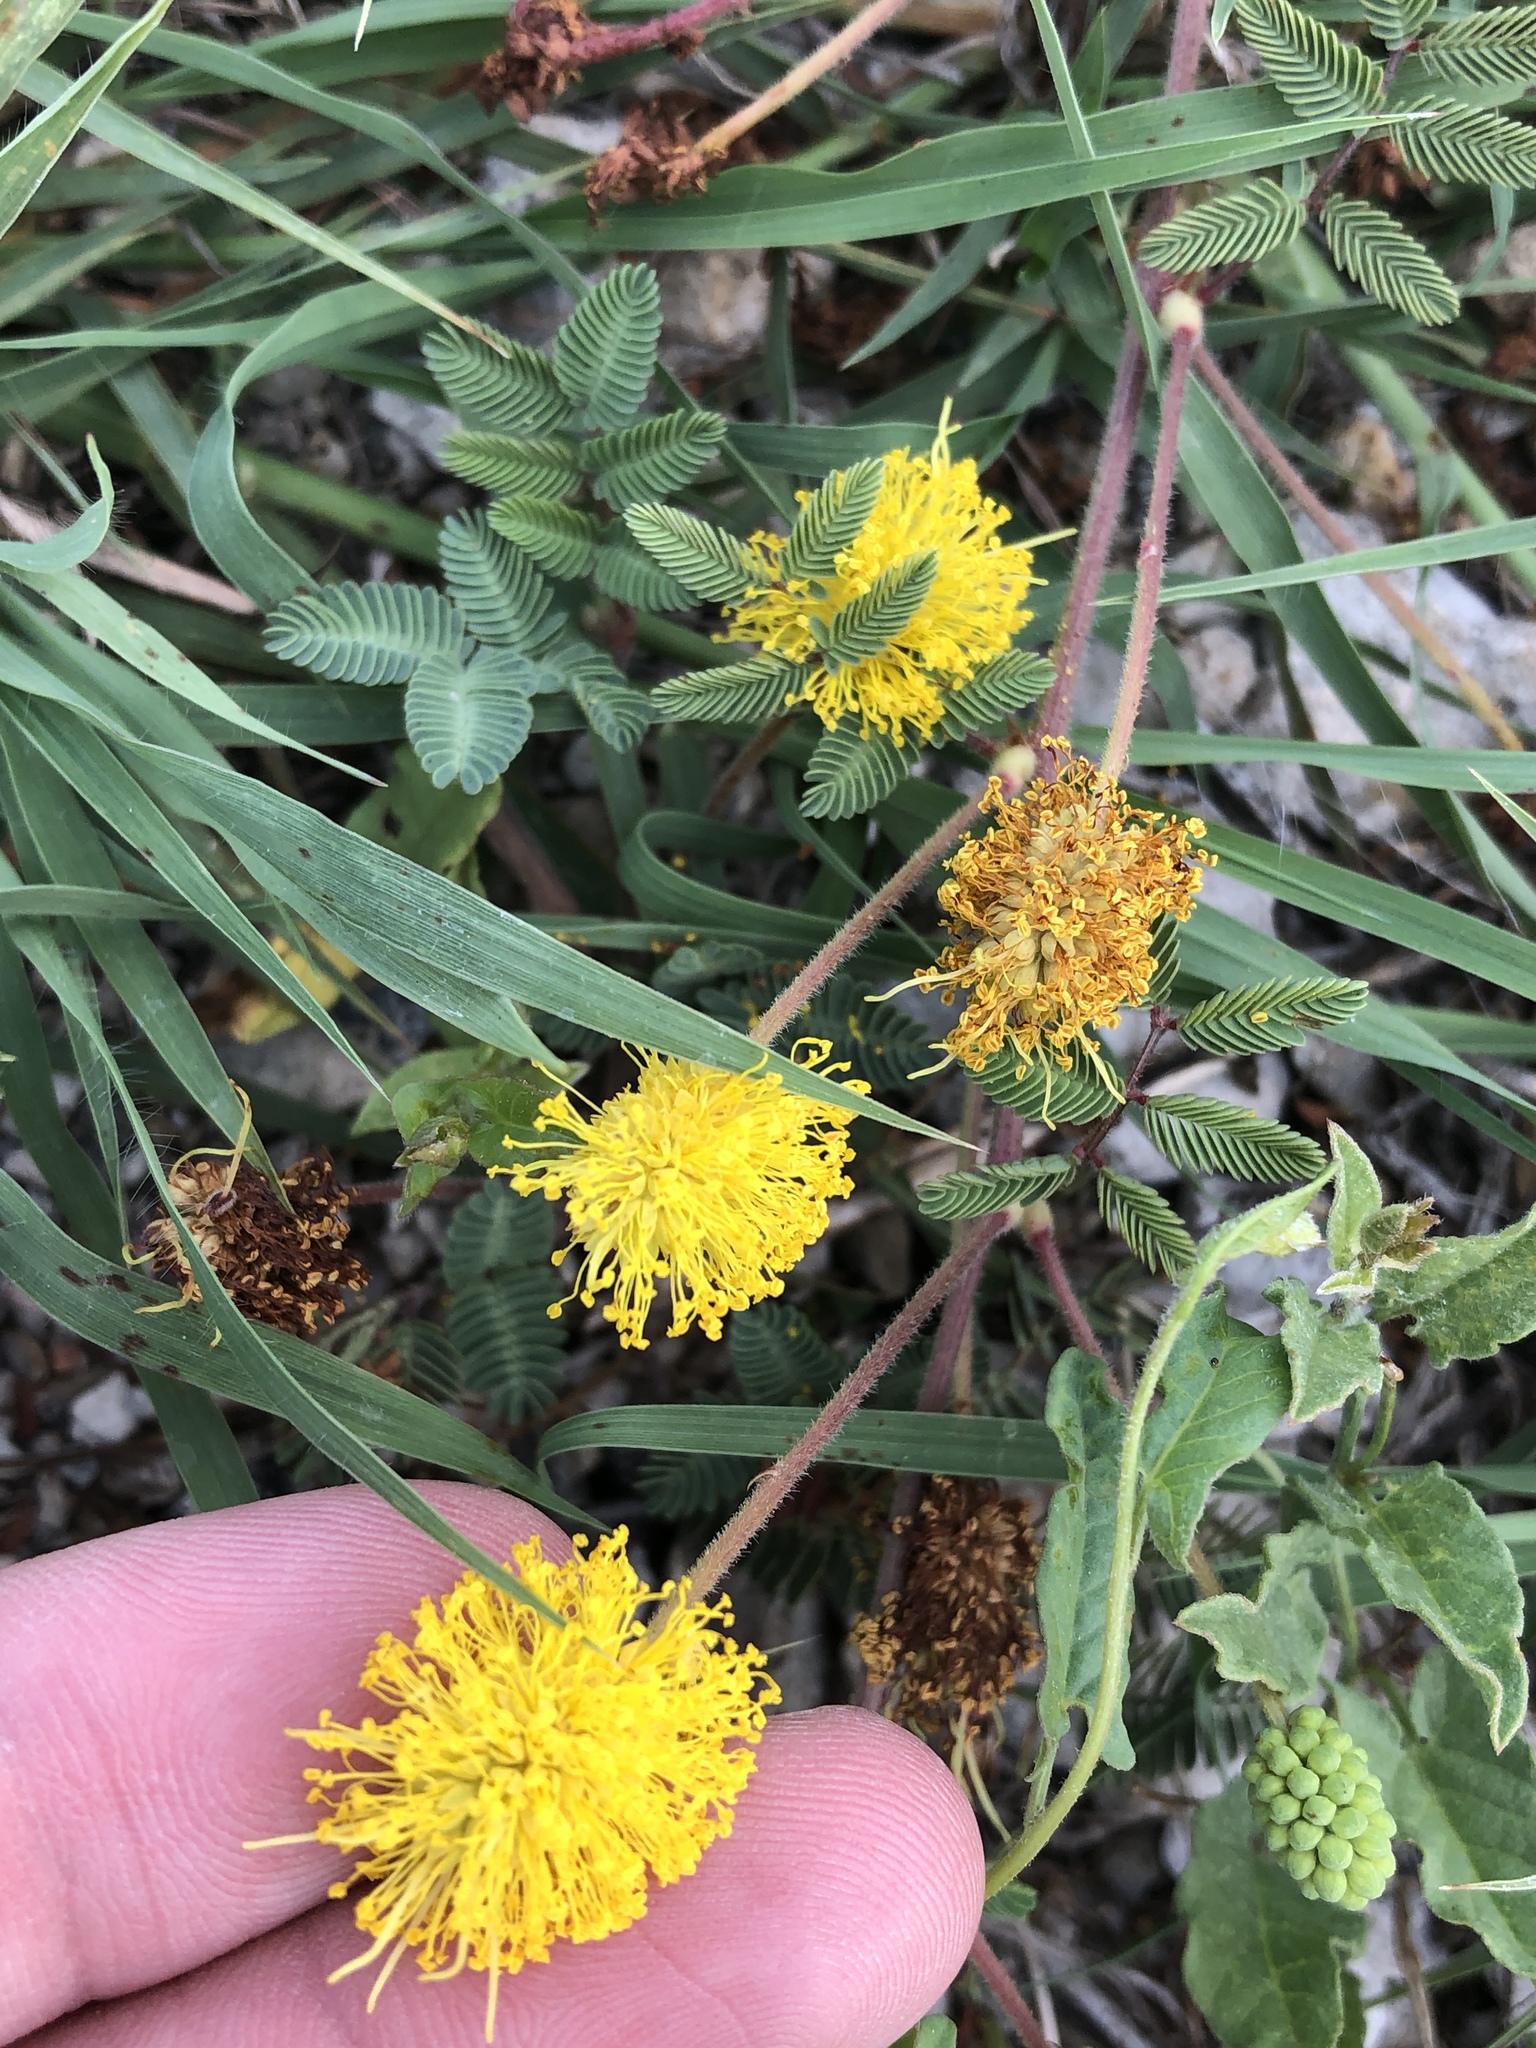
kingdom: Plantae
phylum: Tracheophyta
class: Magnoliopsida
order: Fabales
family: Fabaceae
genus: Neptunia
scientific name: Neptunia lutea
